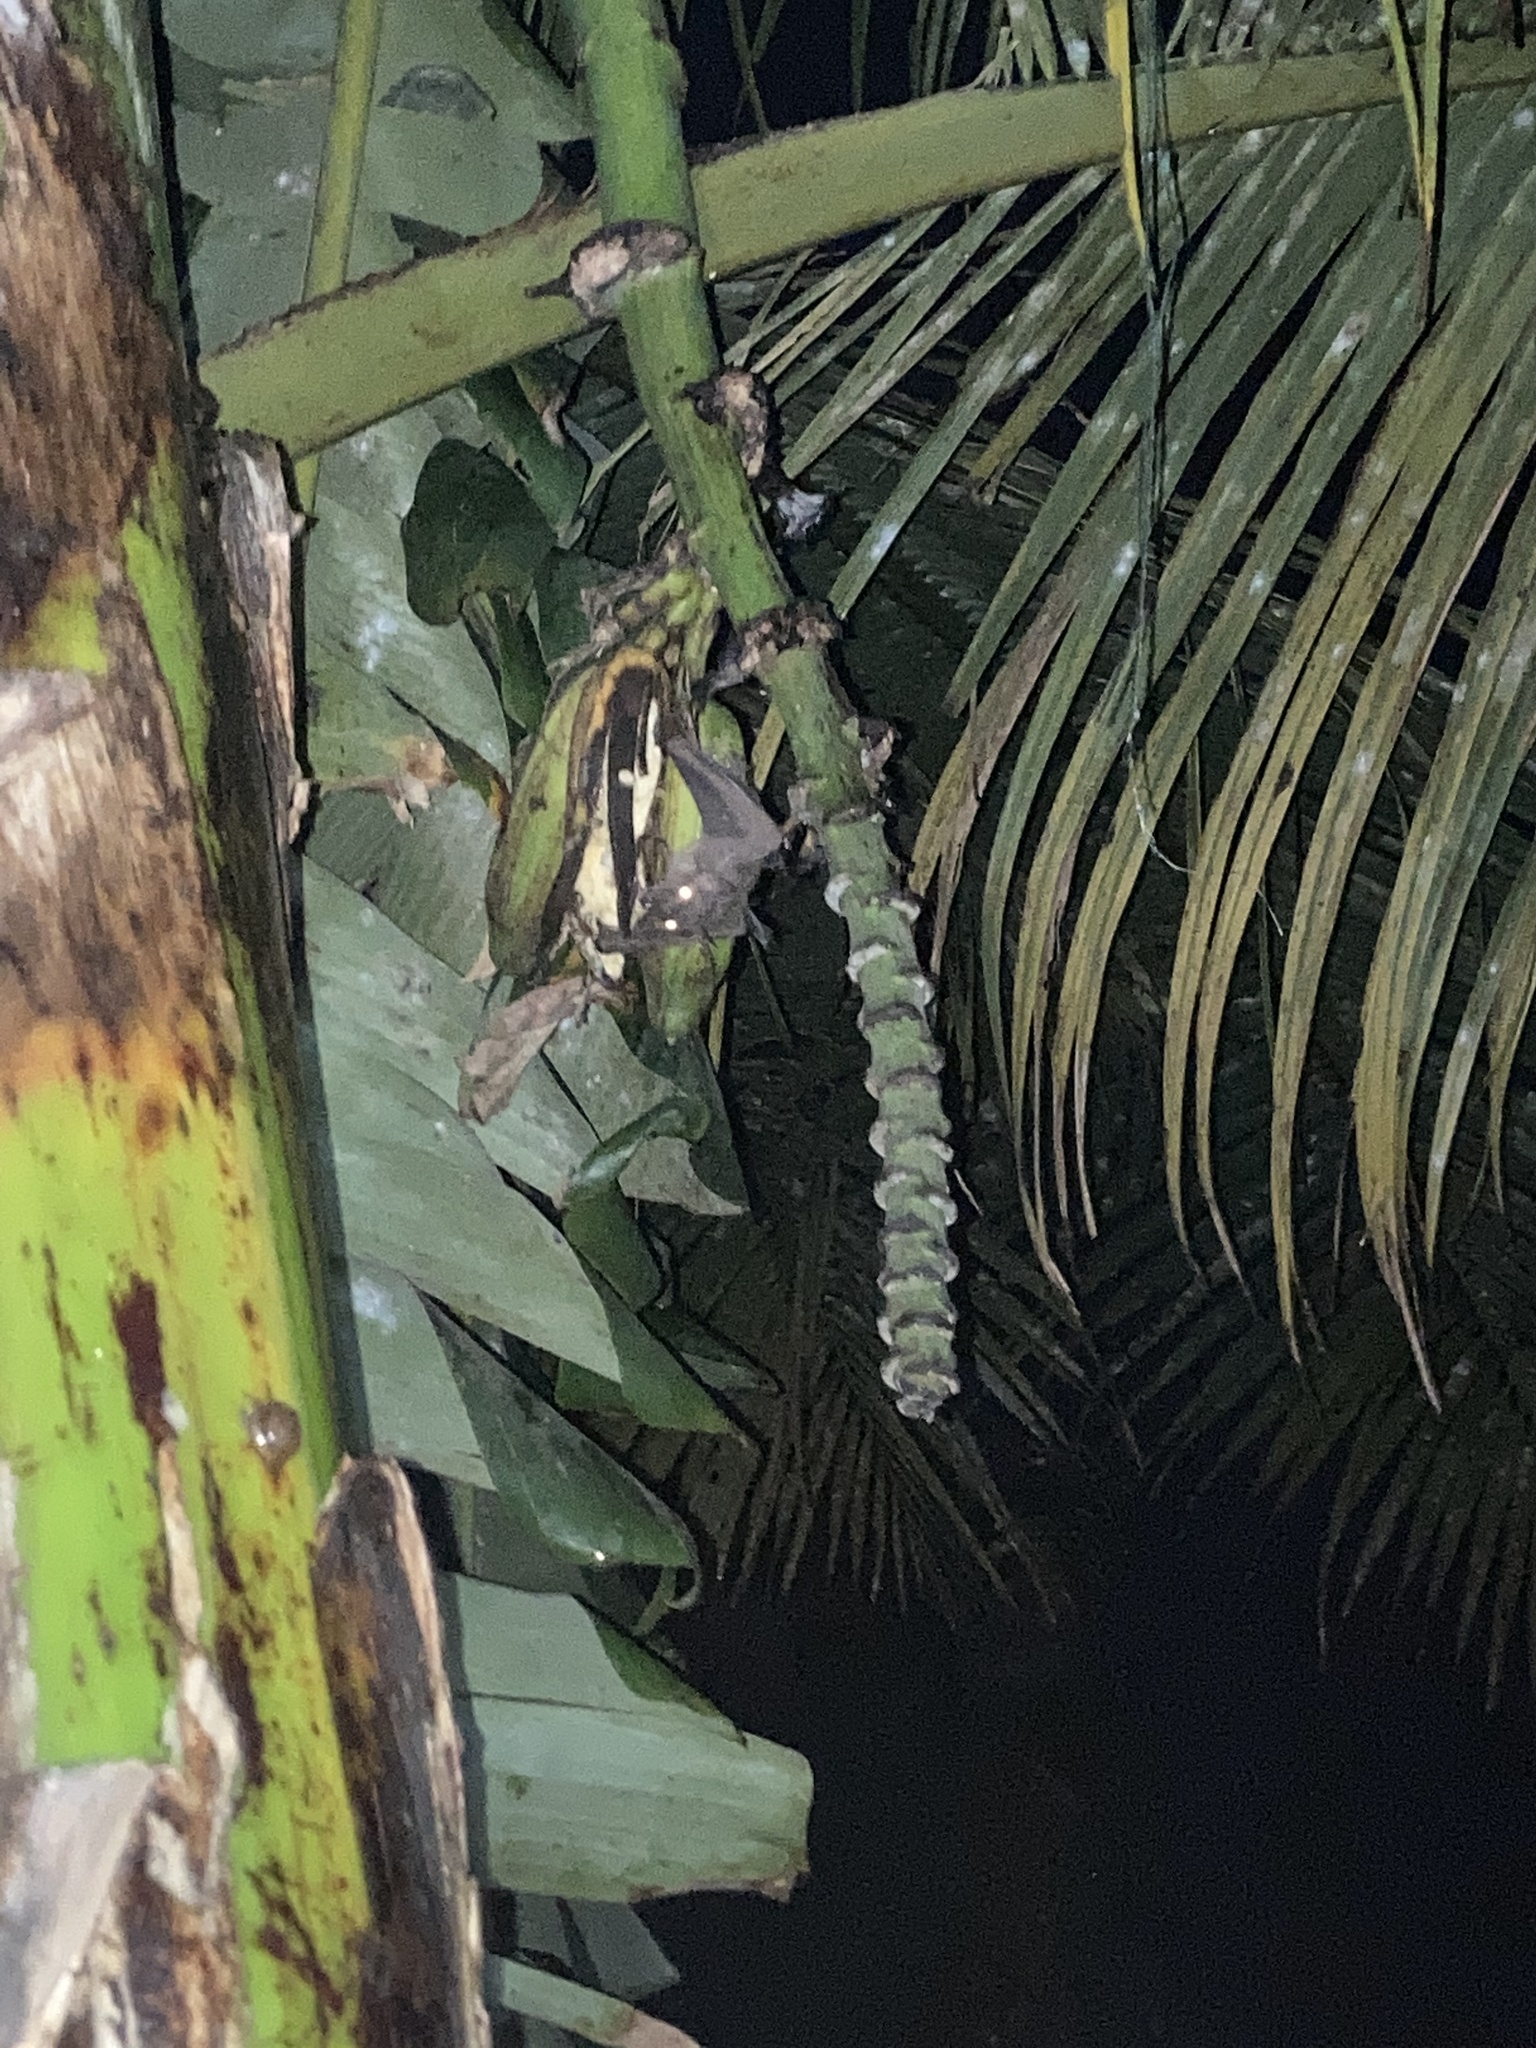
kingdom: Animalia
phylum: Chordata
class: Mammalia
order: Chiroptera
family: Pteropodidae
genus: Rousettus
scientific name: Rousettus leschenaultii
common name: Leschenault's rousette
